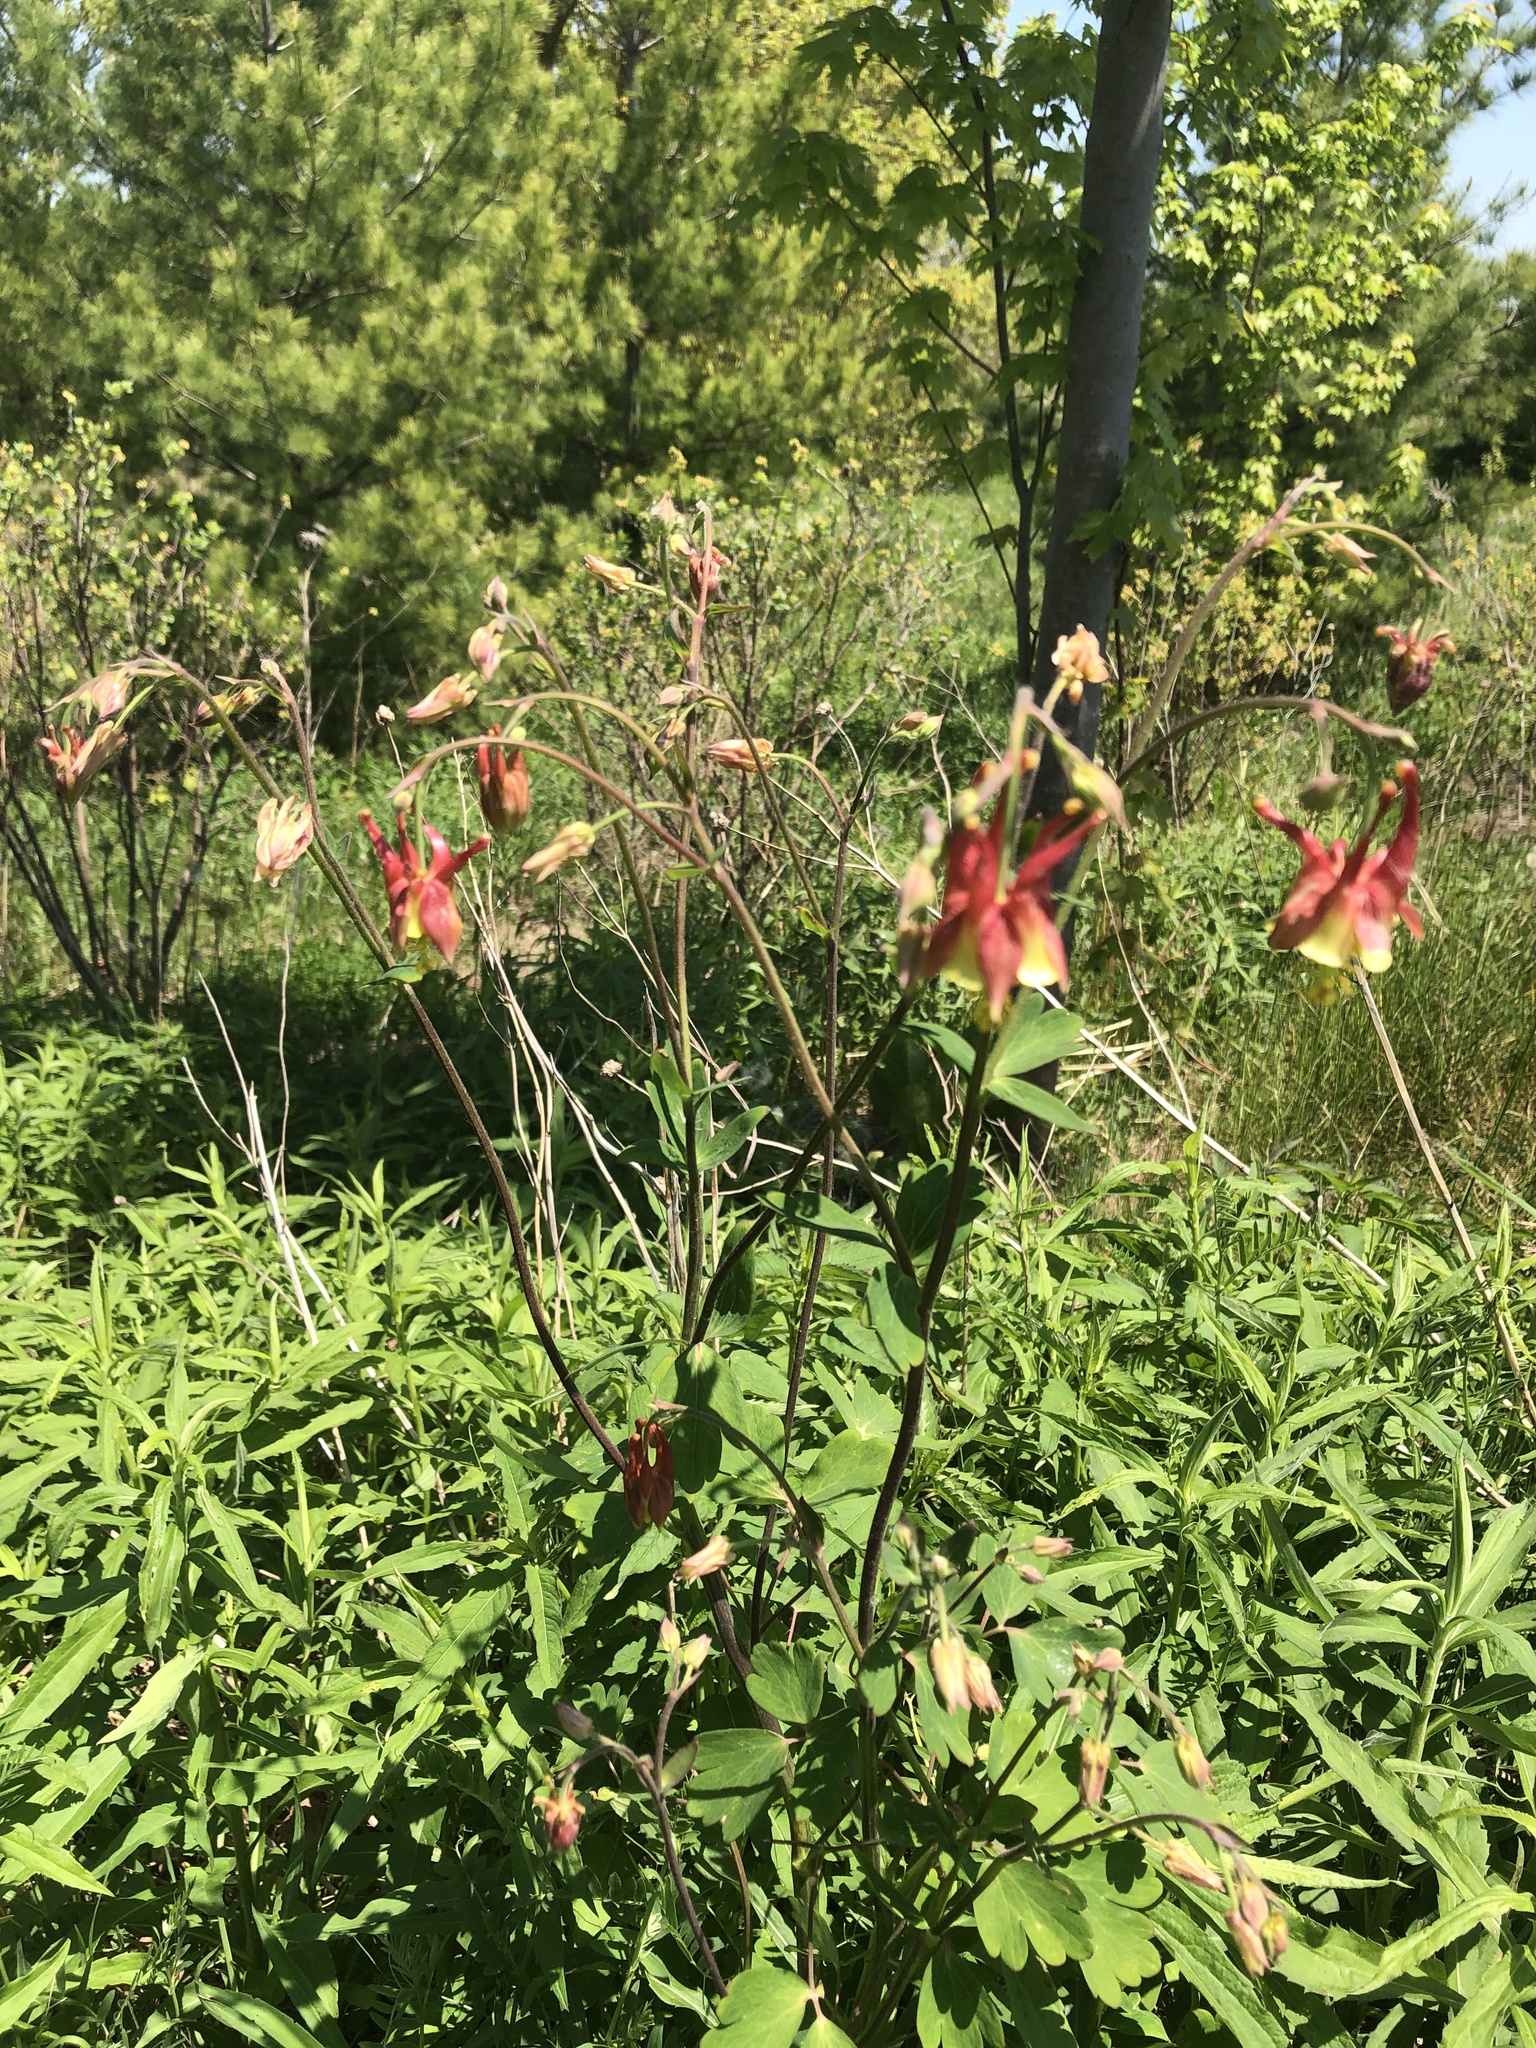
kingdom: Plantae
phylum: Tracheophyta
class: Magnoliopsida
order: Ranunculales
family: Ranunculaceae
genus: Aquilegia
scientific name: Aquilegia canadensis
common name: American columbine
